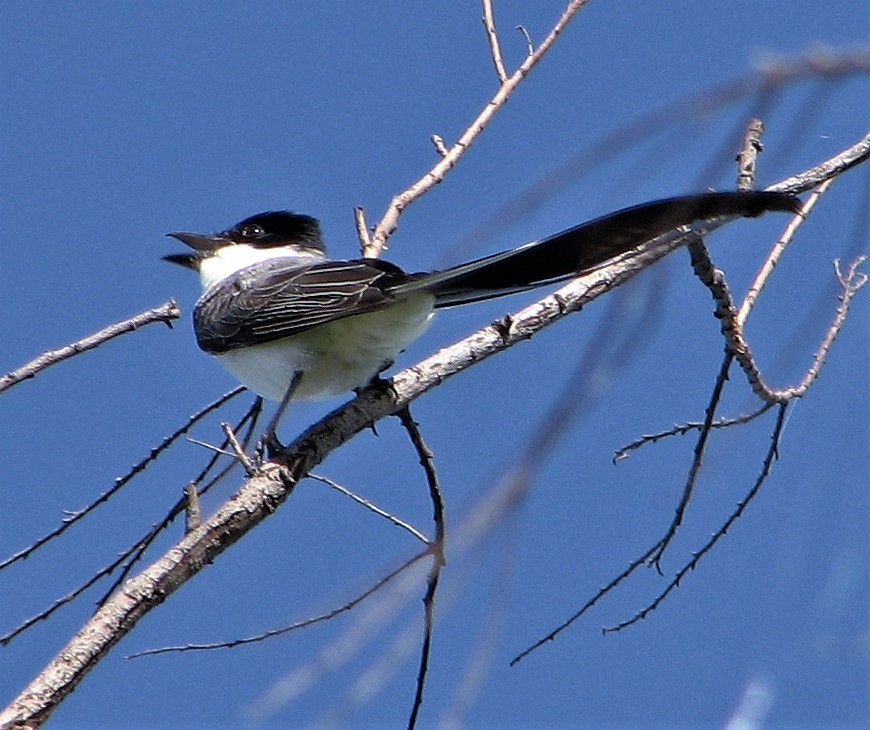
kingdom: Animalia
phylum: Chordata
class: Aves
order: Passeriformes
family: Tyrannidae
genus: Tyrannus
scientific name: Tyrannus savana
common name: Fork-tailed flycatcher
